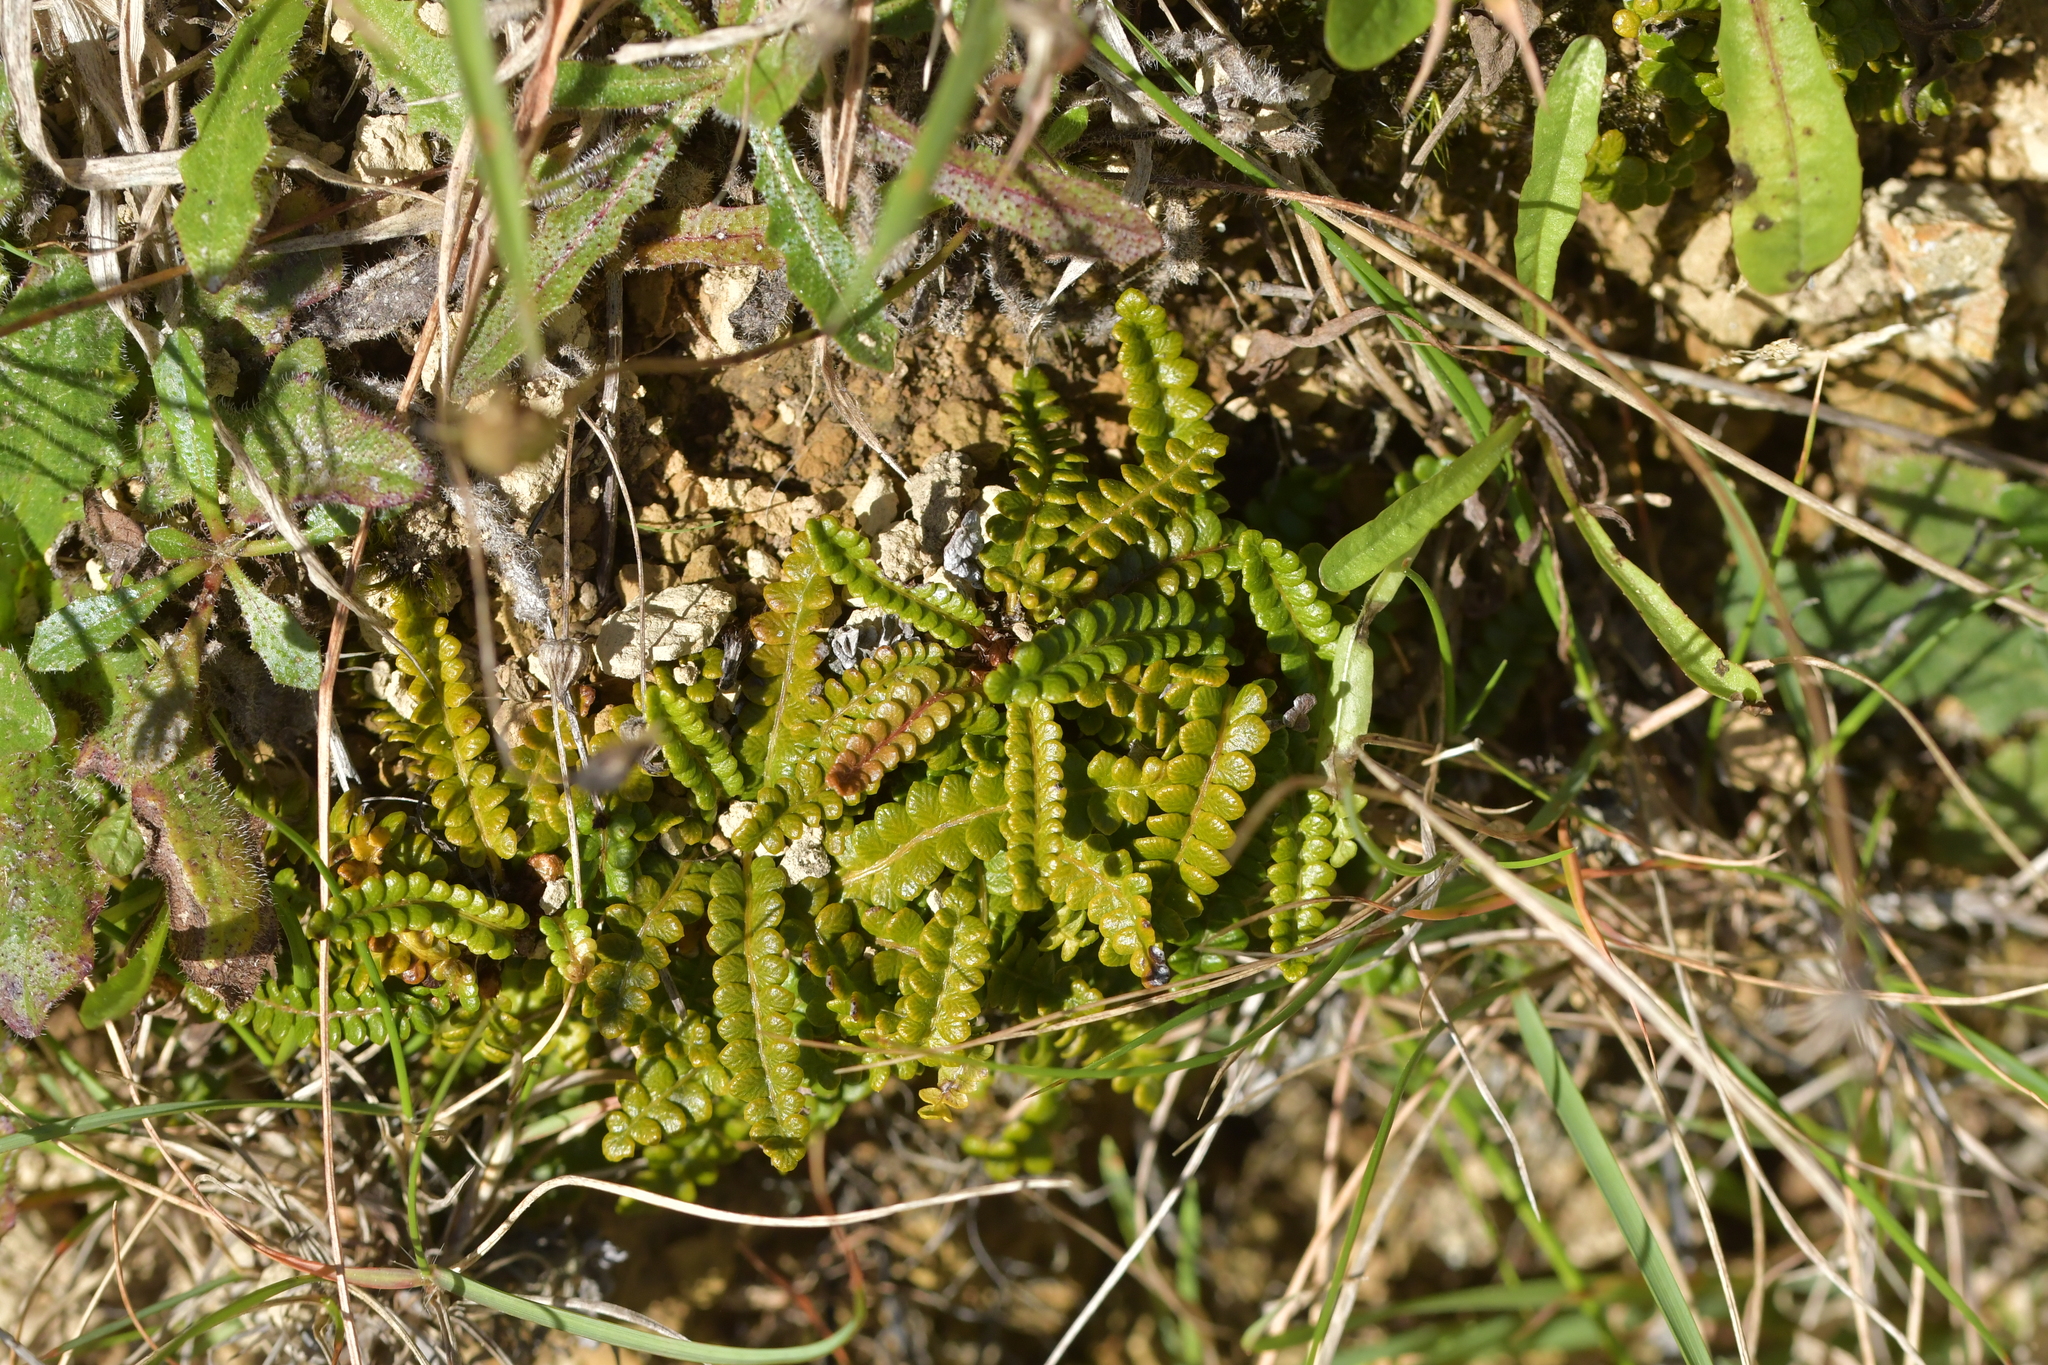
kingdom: Plantae
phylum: Tracheophyta
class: Polypodiopsida
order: Polypodiales
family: Blechnaceae
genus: Austroblechnum
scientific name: Austroblechnum penna-marina
